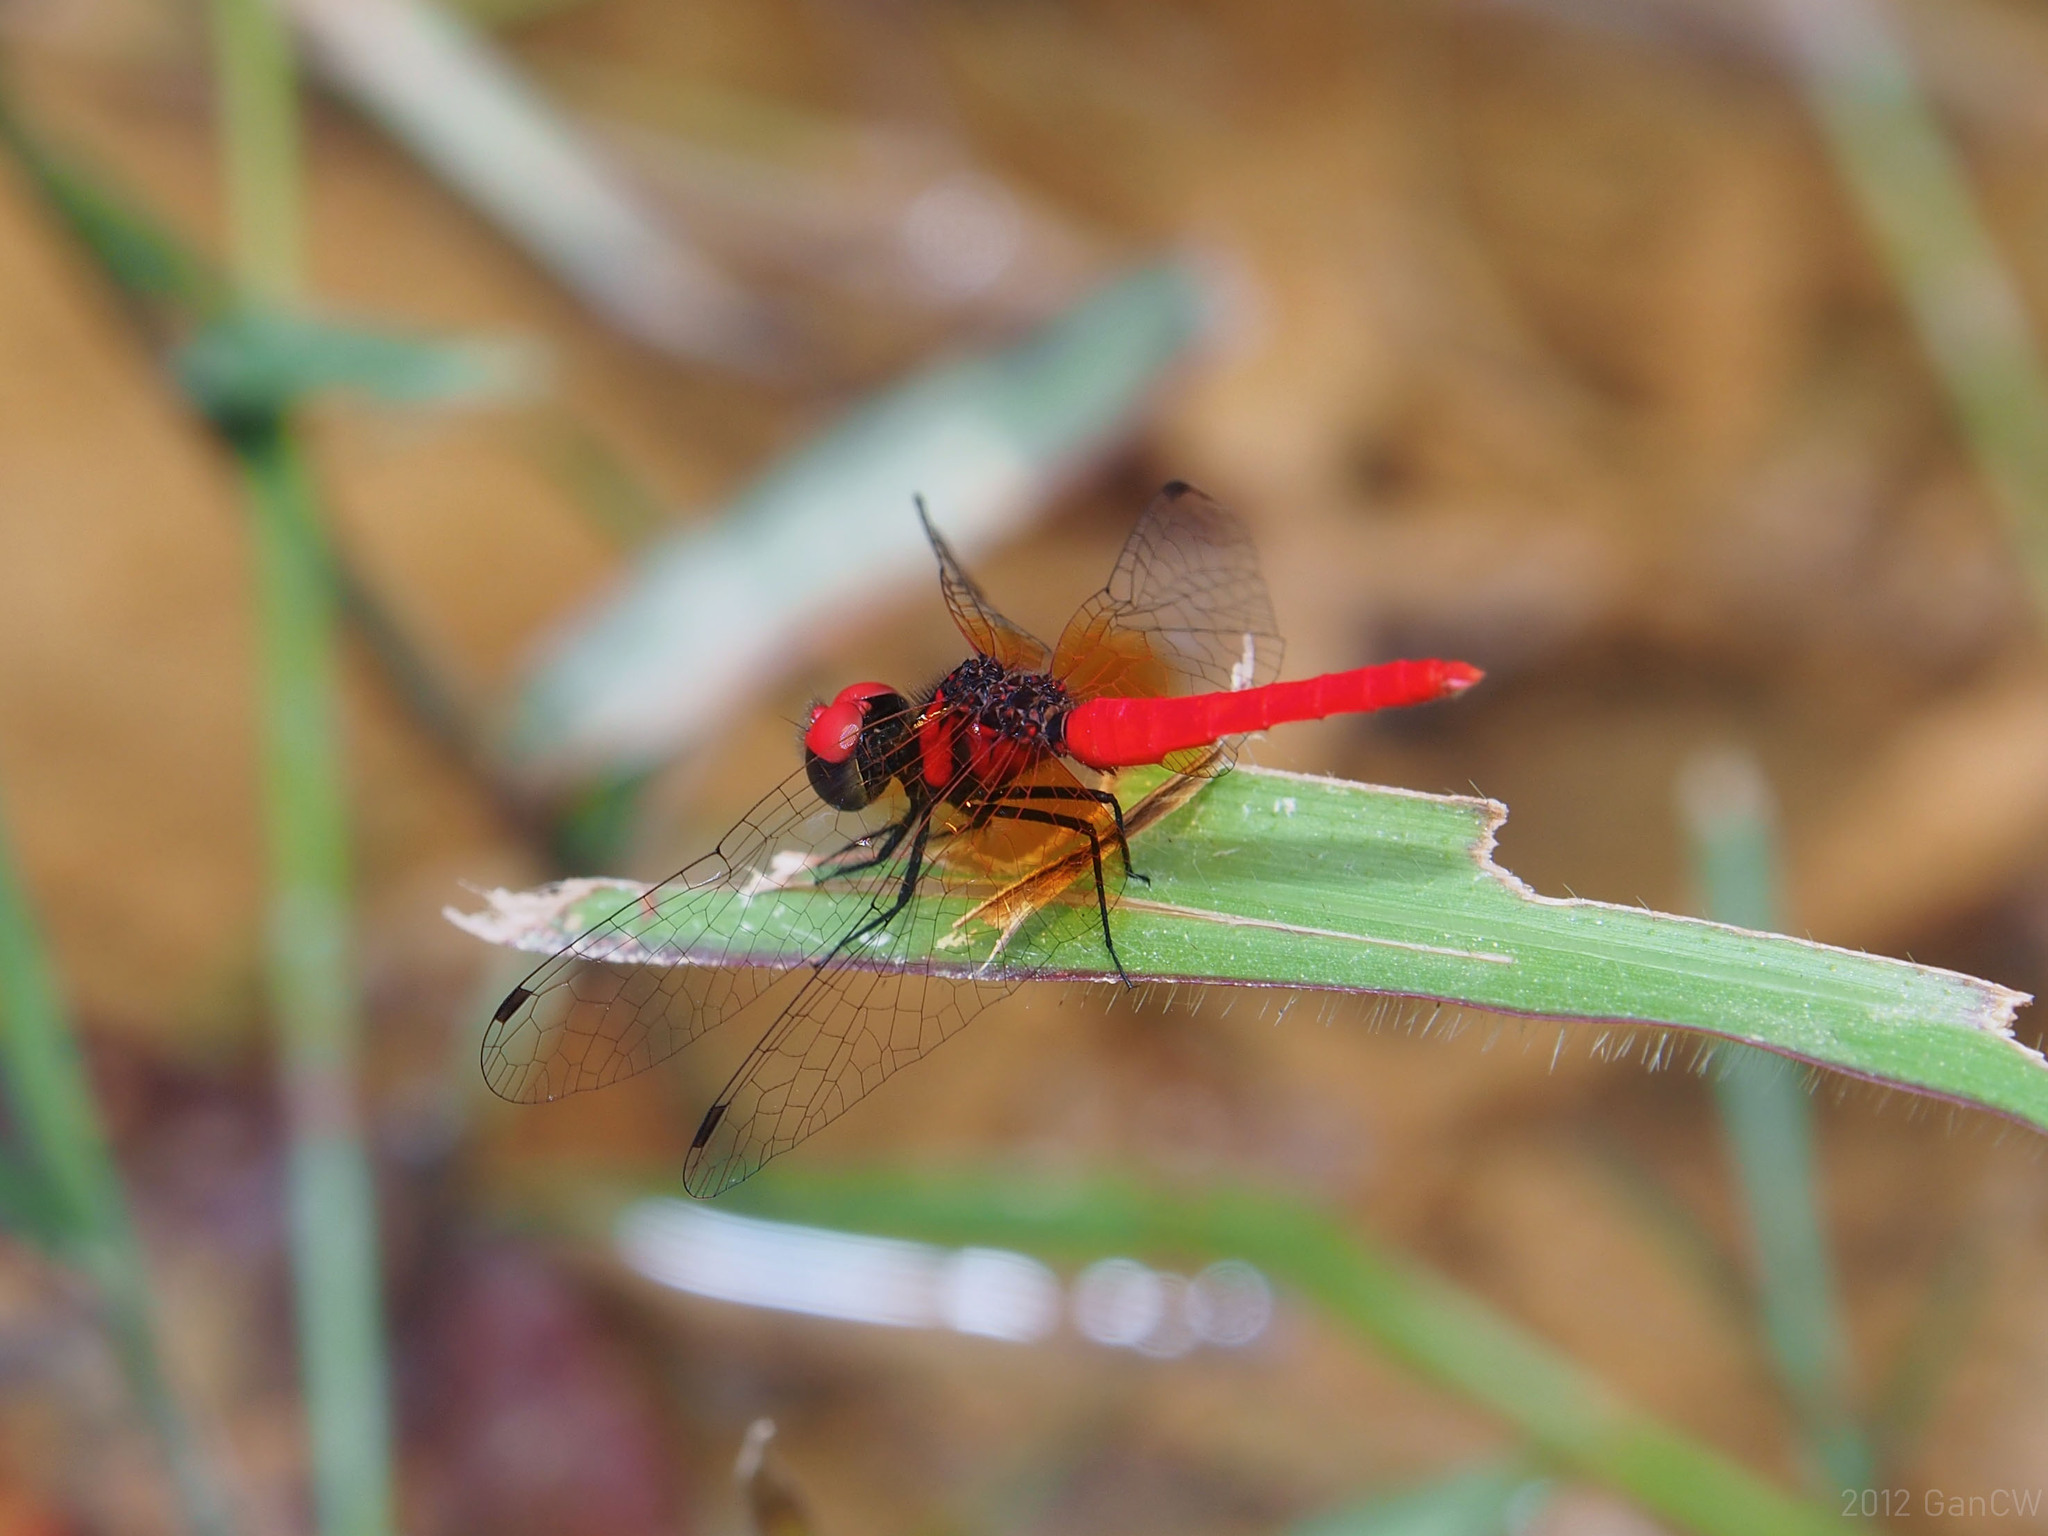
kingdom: Animalia
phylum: Arthropoda
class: Insecta
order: Odonata
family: Libellulidae
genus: Nannophya
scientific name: Nannophya pygmaea
